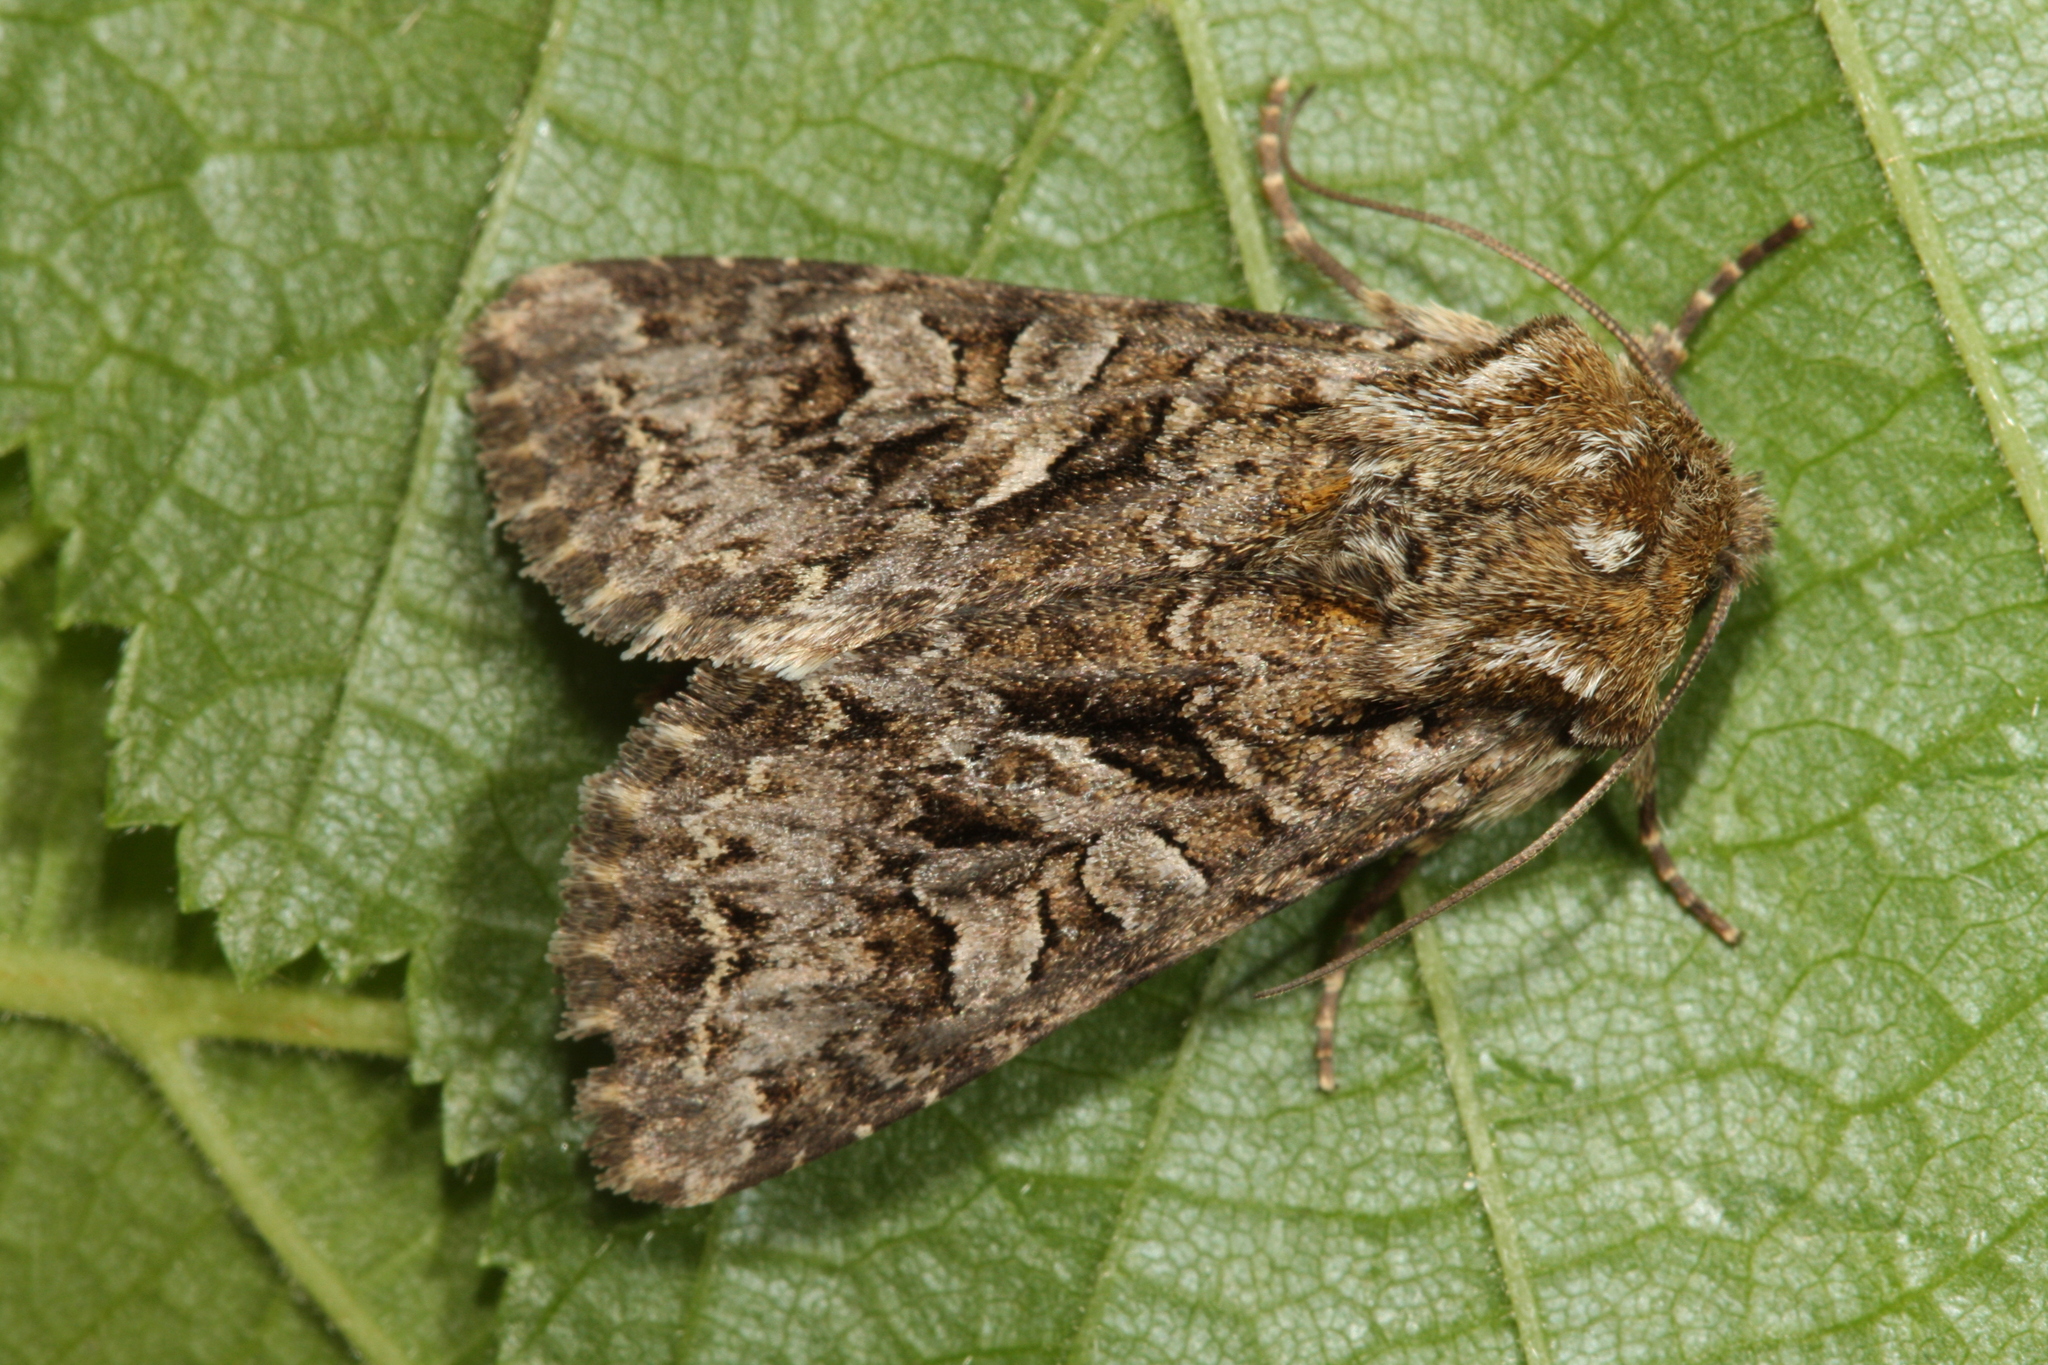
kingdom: Animalia
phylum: Arthropoda
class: Insecta
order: Lepidoptera
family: Noctuidae
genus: Hada
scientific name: Hada plebeja
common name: Shears
